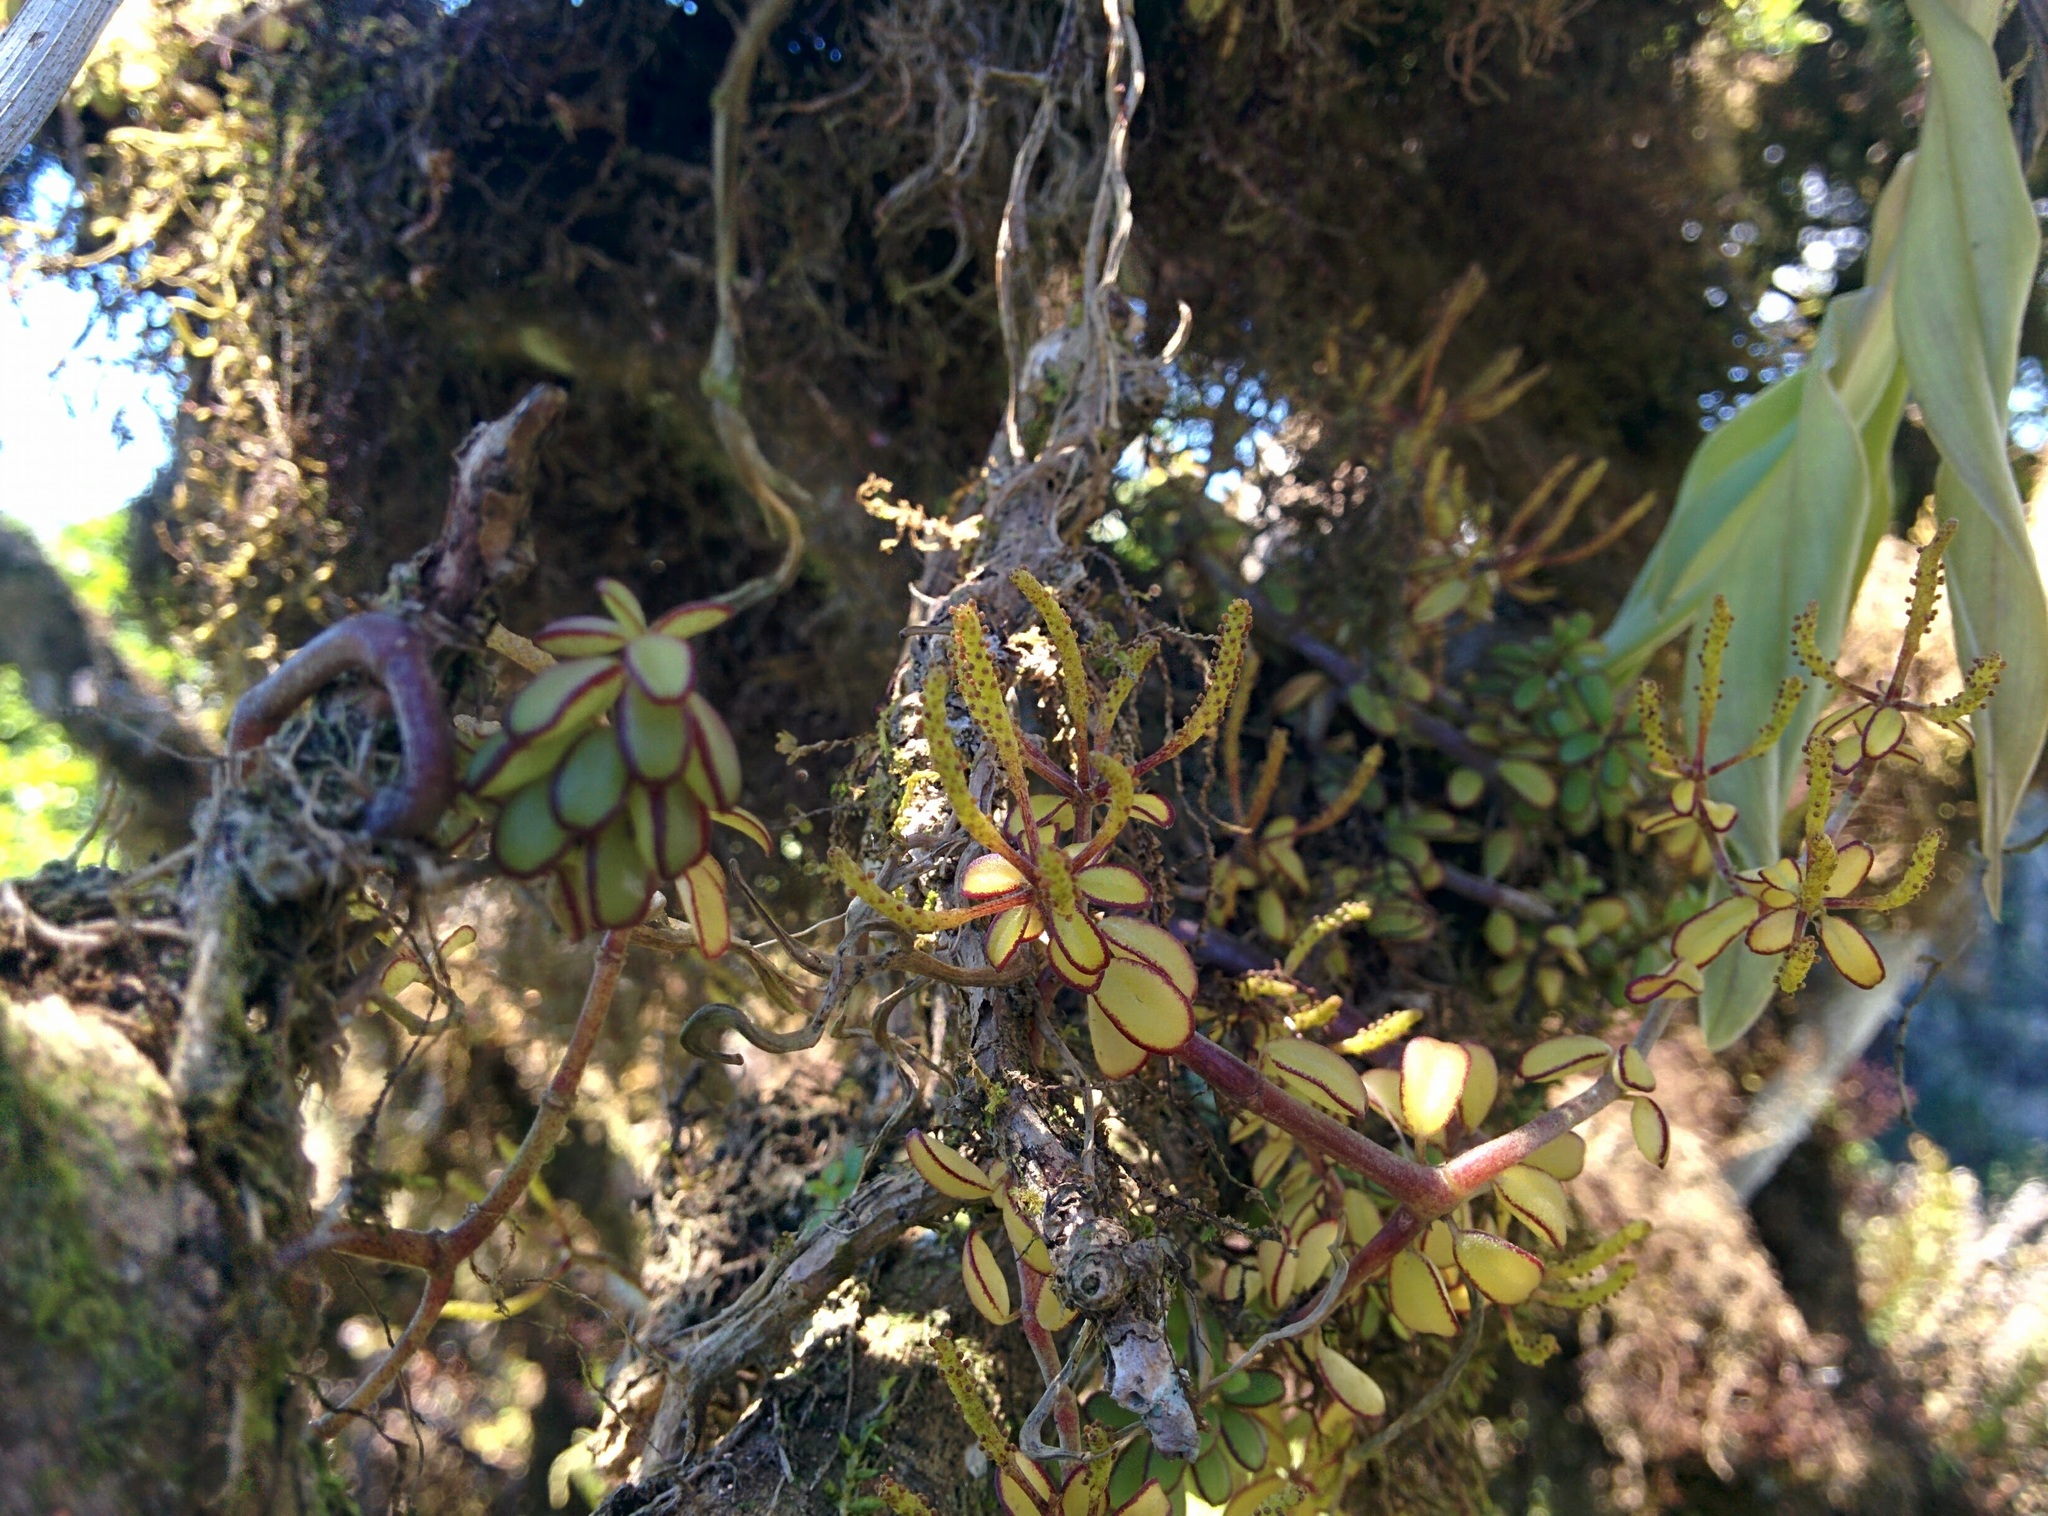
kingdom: Plantae
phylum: Tracheophyta
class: Magnoliopsida
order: Piperales
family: Piperaceae
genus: Peperomia
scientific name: Peperomia inaequalifolia
